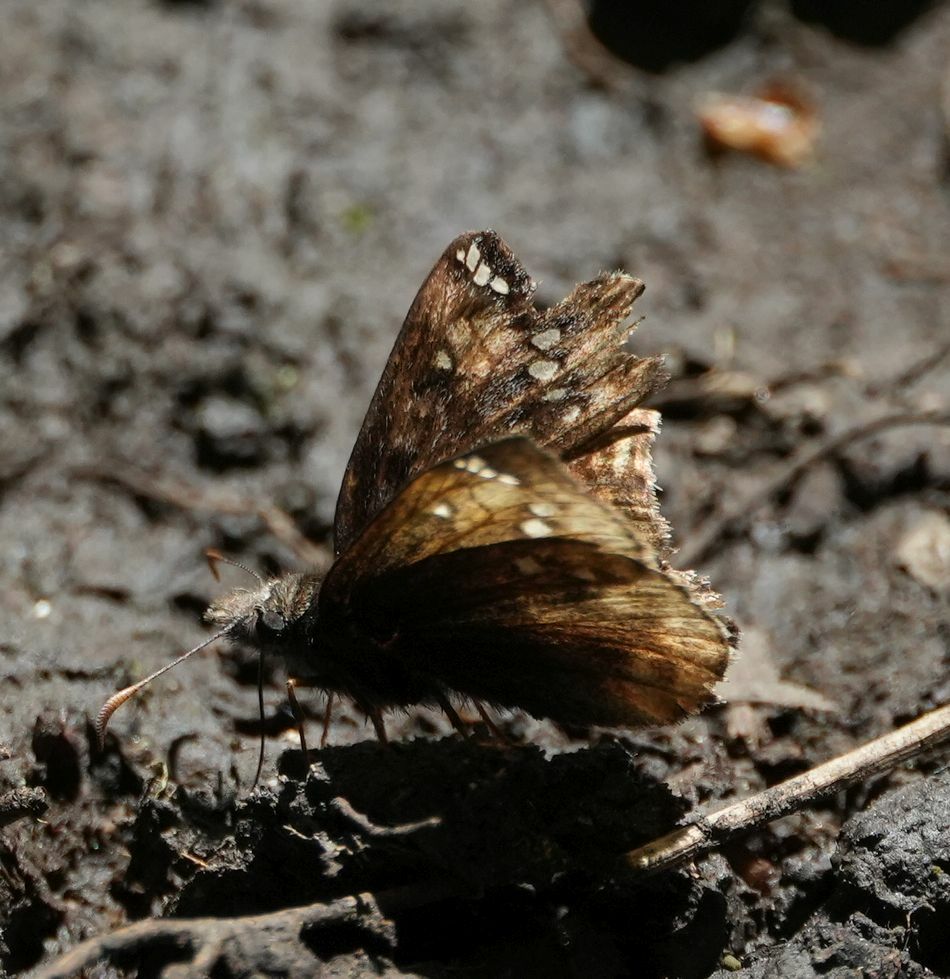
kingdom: Animalia
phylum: Arthropoda
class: Insecta
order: Lepidoptera
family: Hesperiidae
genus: Erynnis
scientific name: Erynnis juvenalis
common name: Juvenal's duskywing
